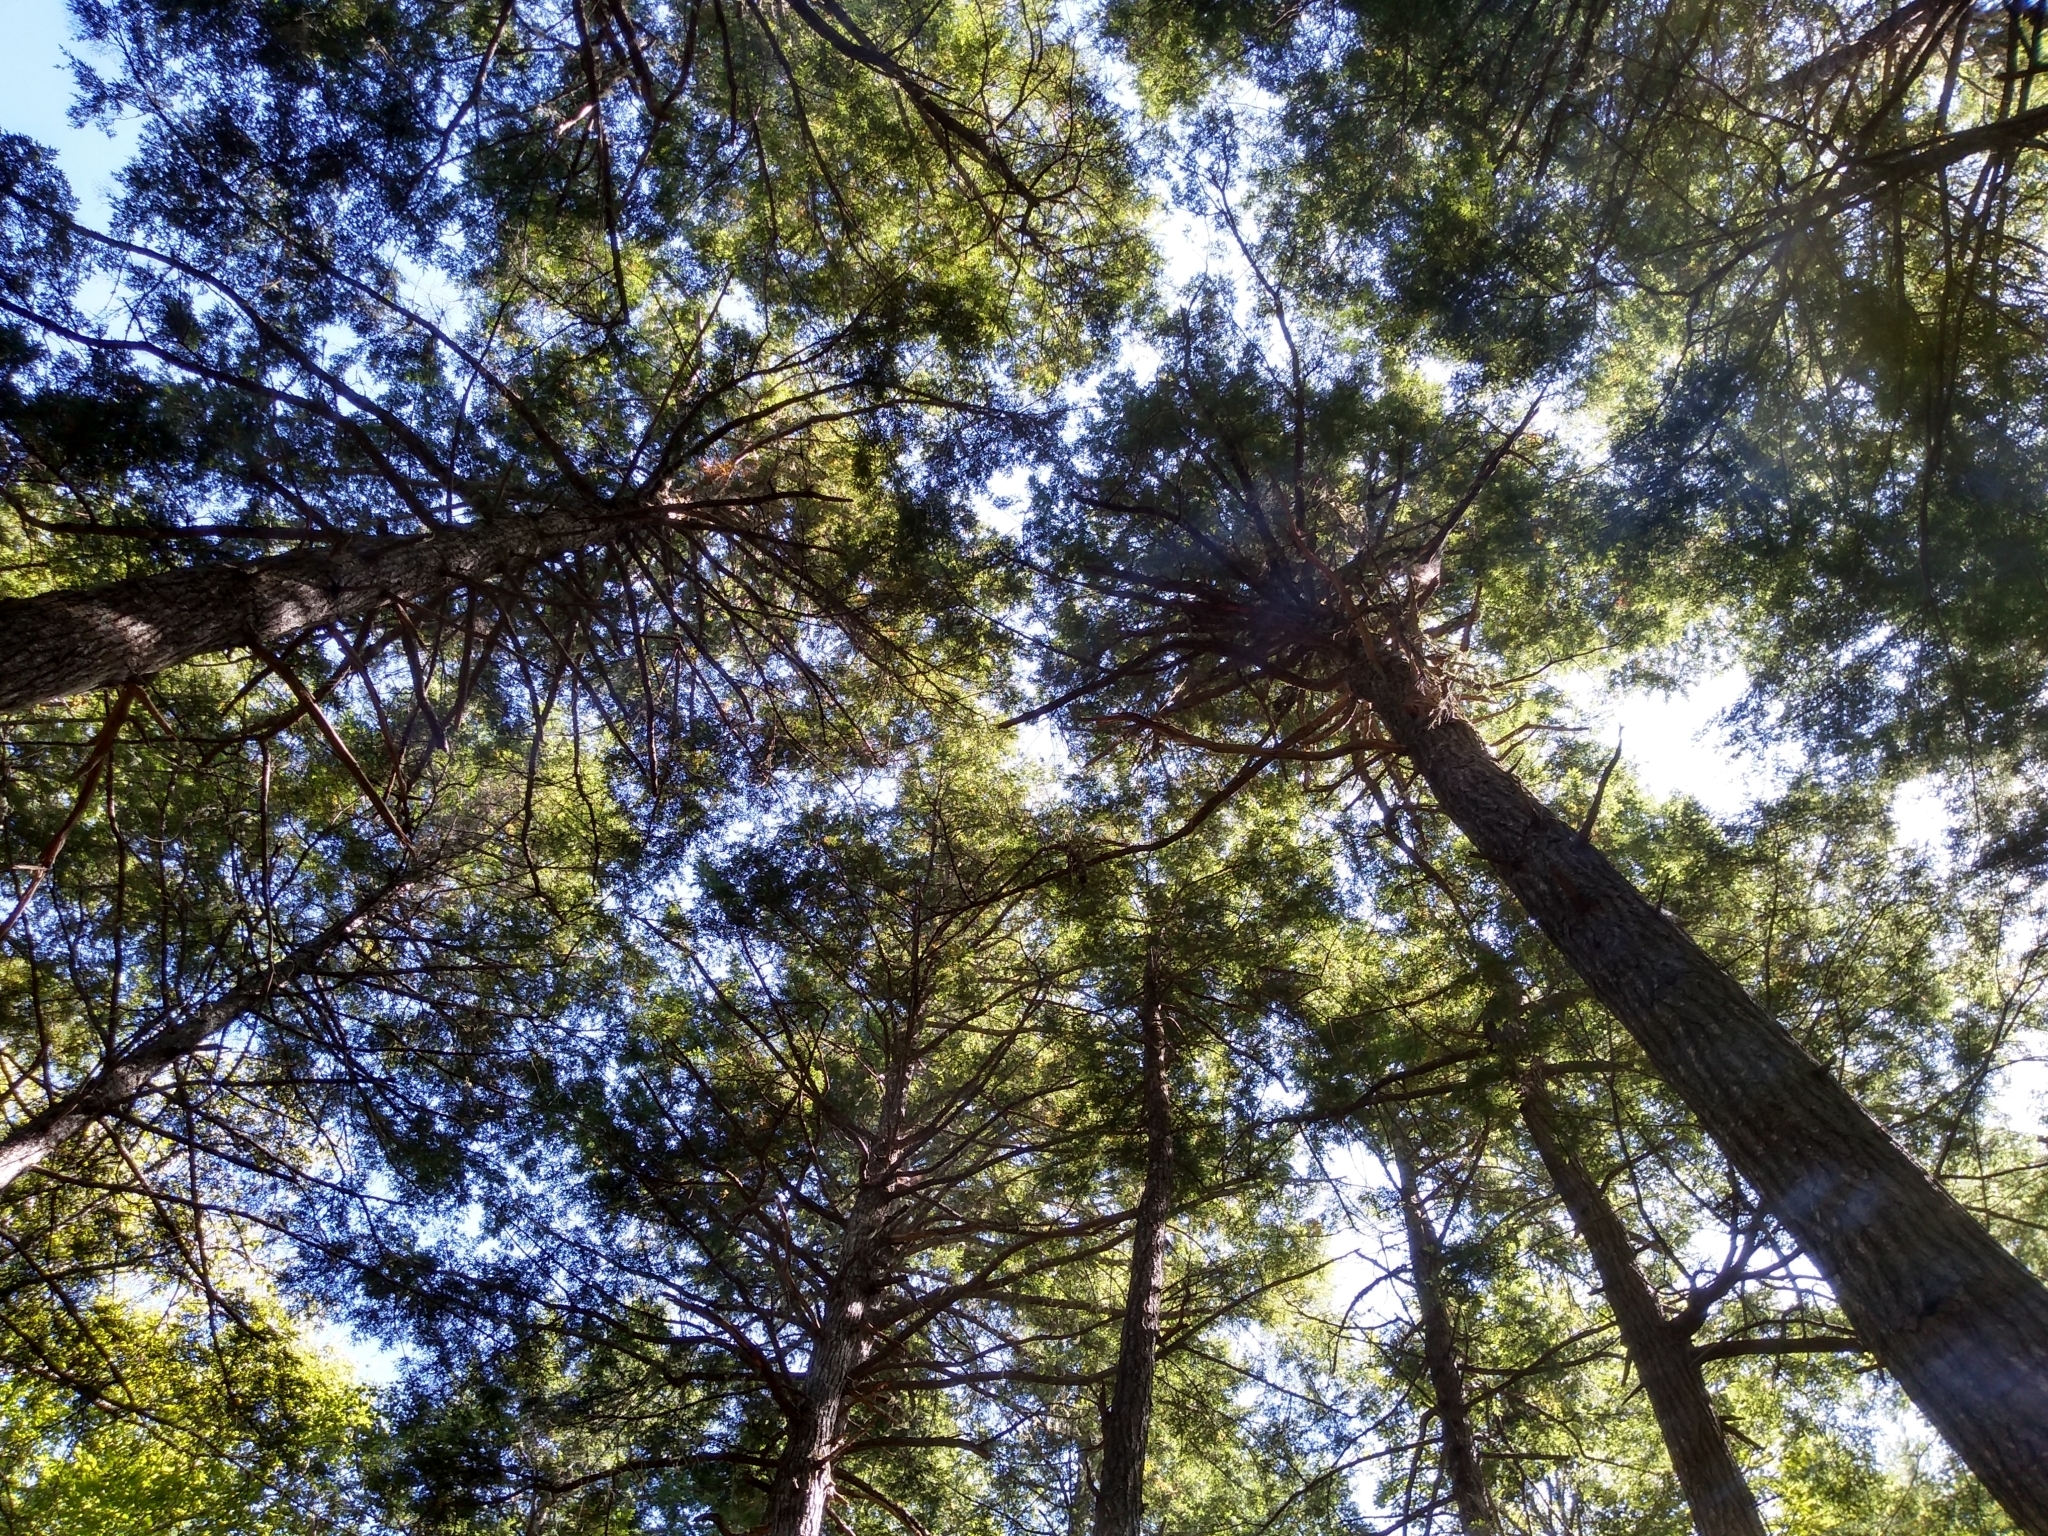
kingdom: Plantae
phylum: Tracheophyta
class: Pinopsida
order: Pinales
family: Pinaceae
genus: Tsuga
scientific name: Tsuga canadensis
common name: Eastern hemlock
